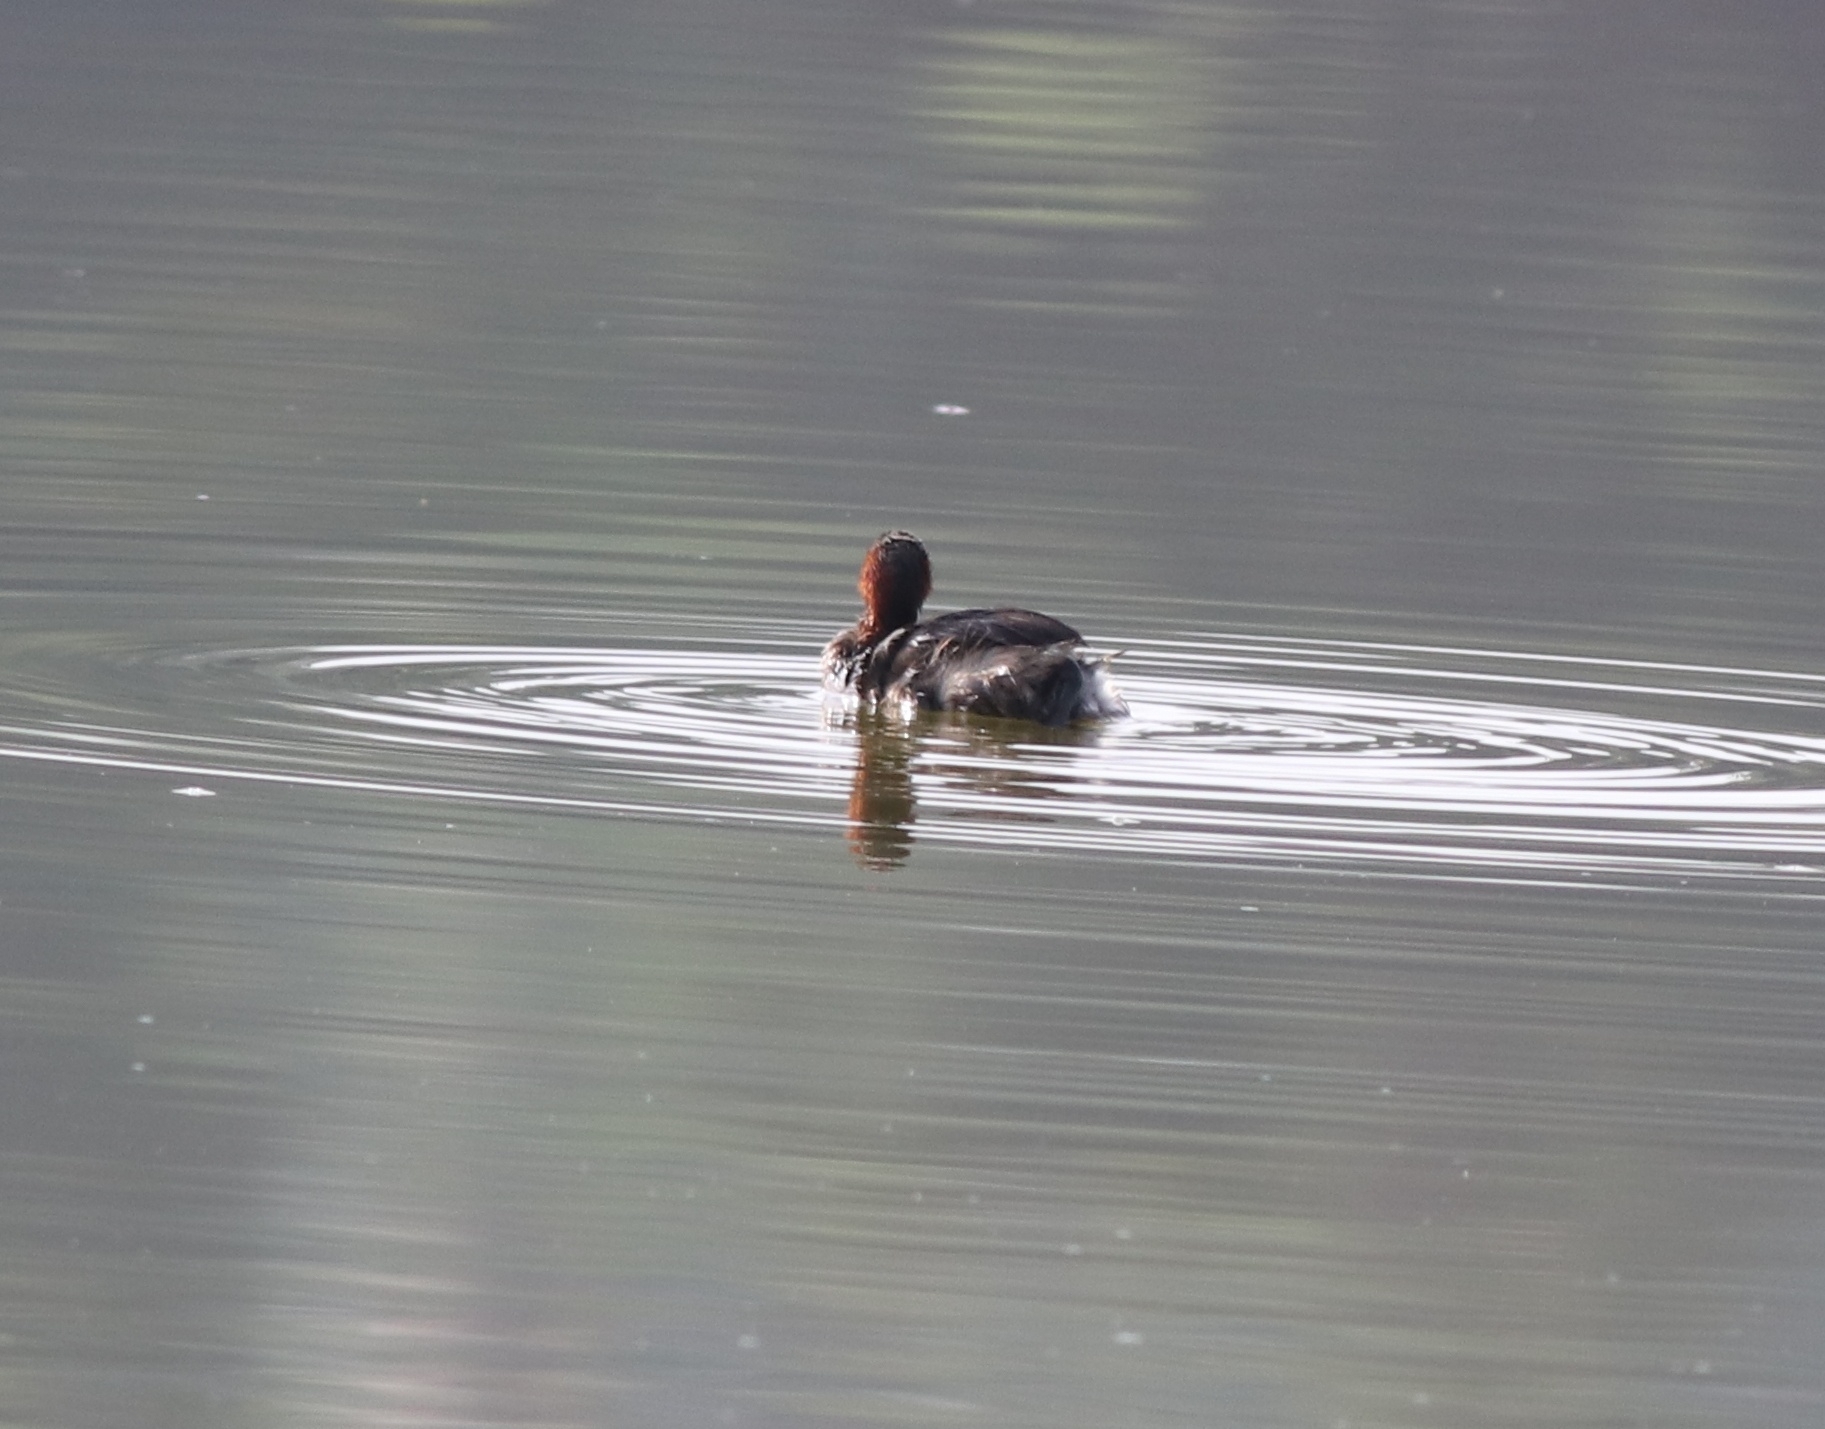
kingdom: Animalia
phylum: Chordata
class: Aves
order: Podicipediformes
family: Podicipedidae
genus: Tachybaptus
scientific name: Tachybaptus ruficollis
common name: Little grebe
